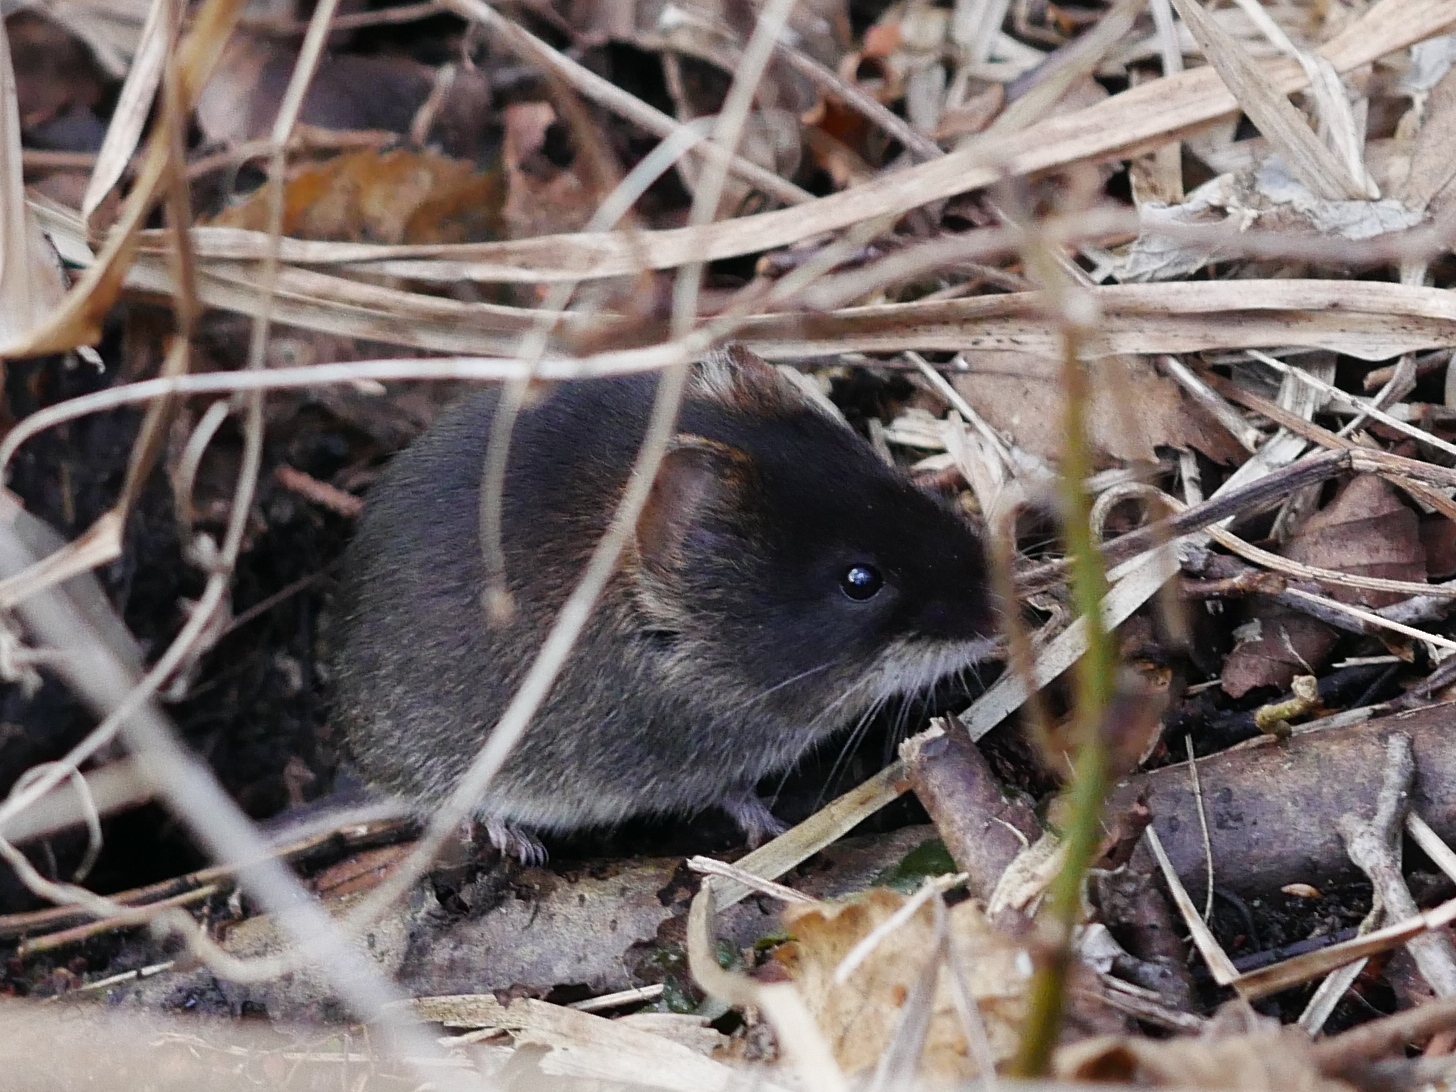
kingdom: Animalia
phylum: Chordata
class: Mammalia
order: Rodentia
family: Cricetidae
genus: Myodes
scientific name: Myodes glareolus
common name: Bank vole
